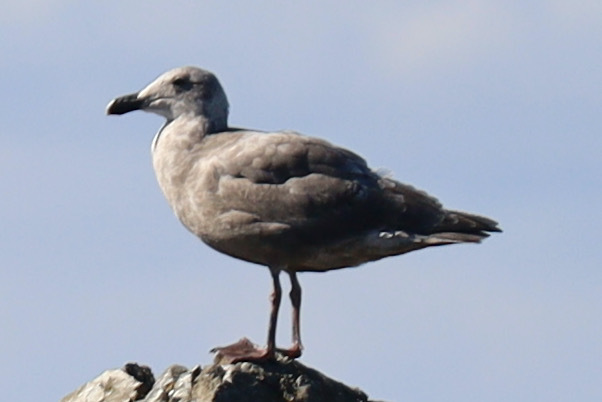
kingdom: Animalia
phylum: Chordata
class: Aves
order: Charadriiformes
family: Laridae
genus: Larus
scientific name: Larus
